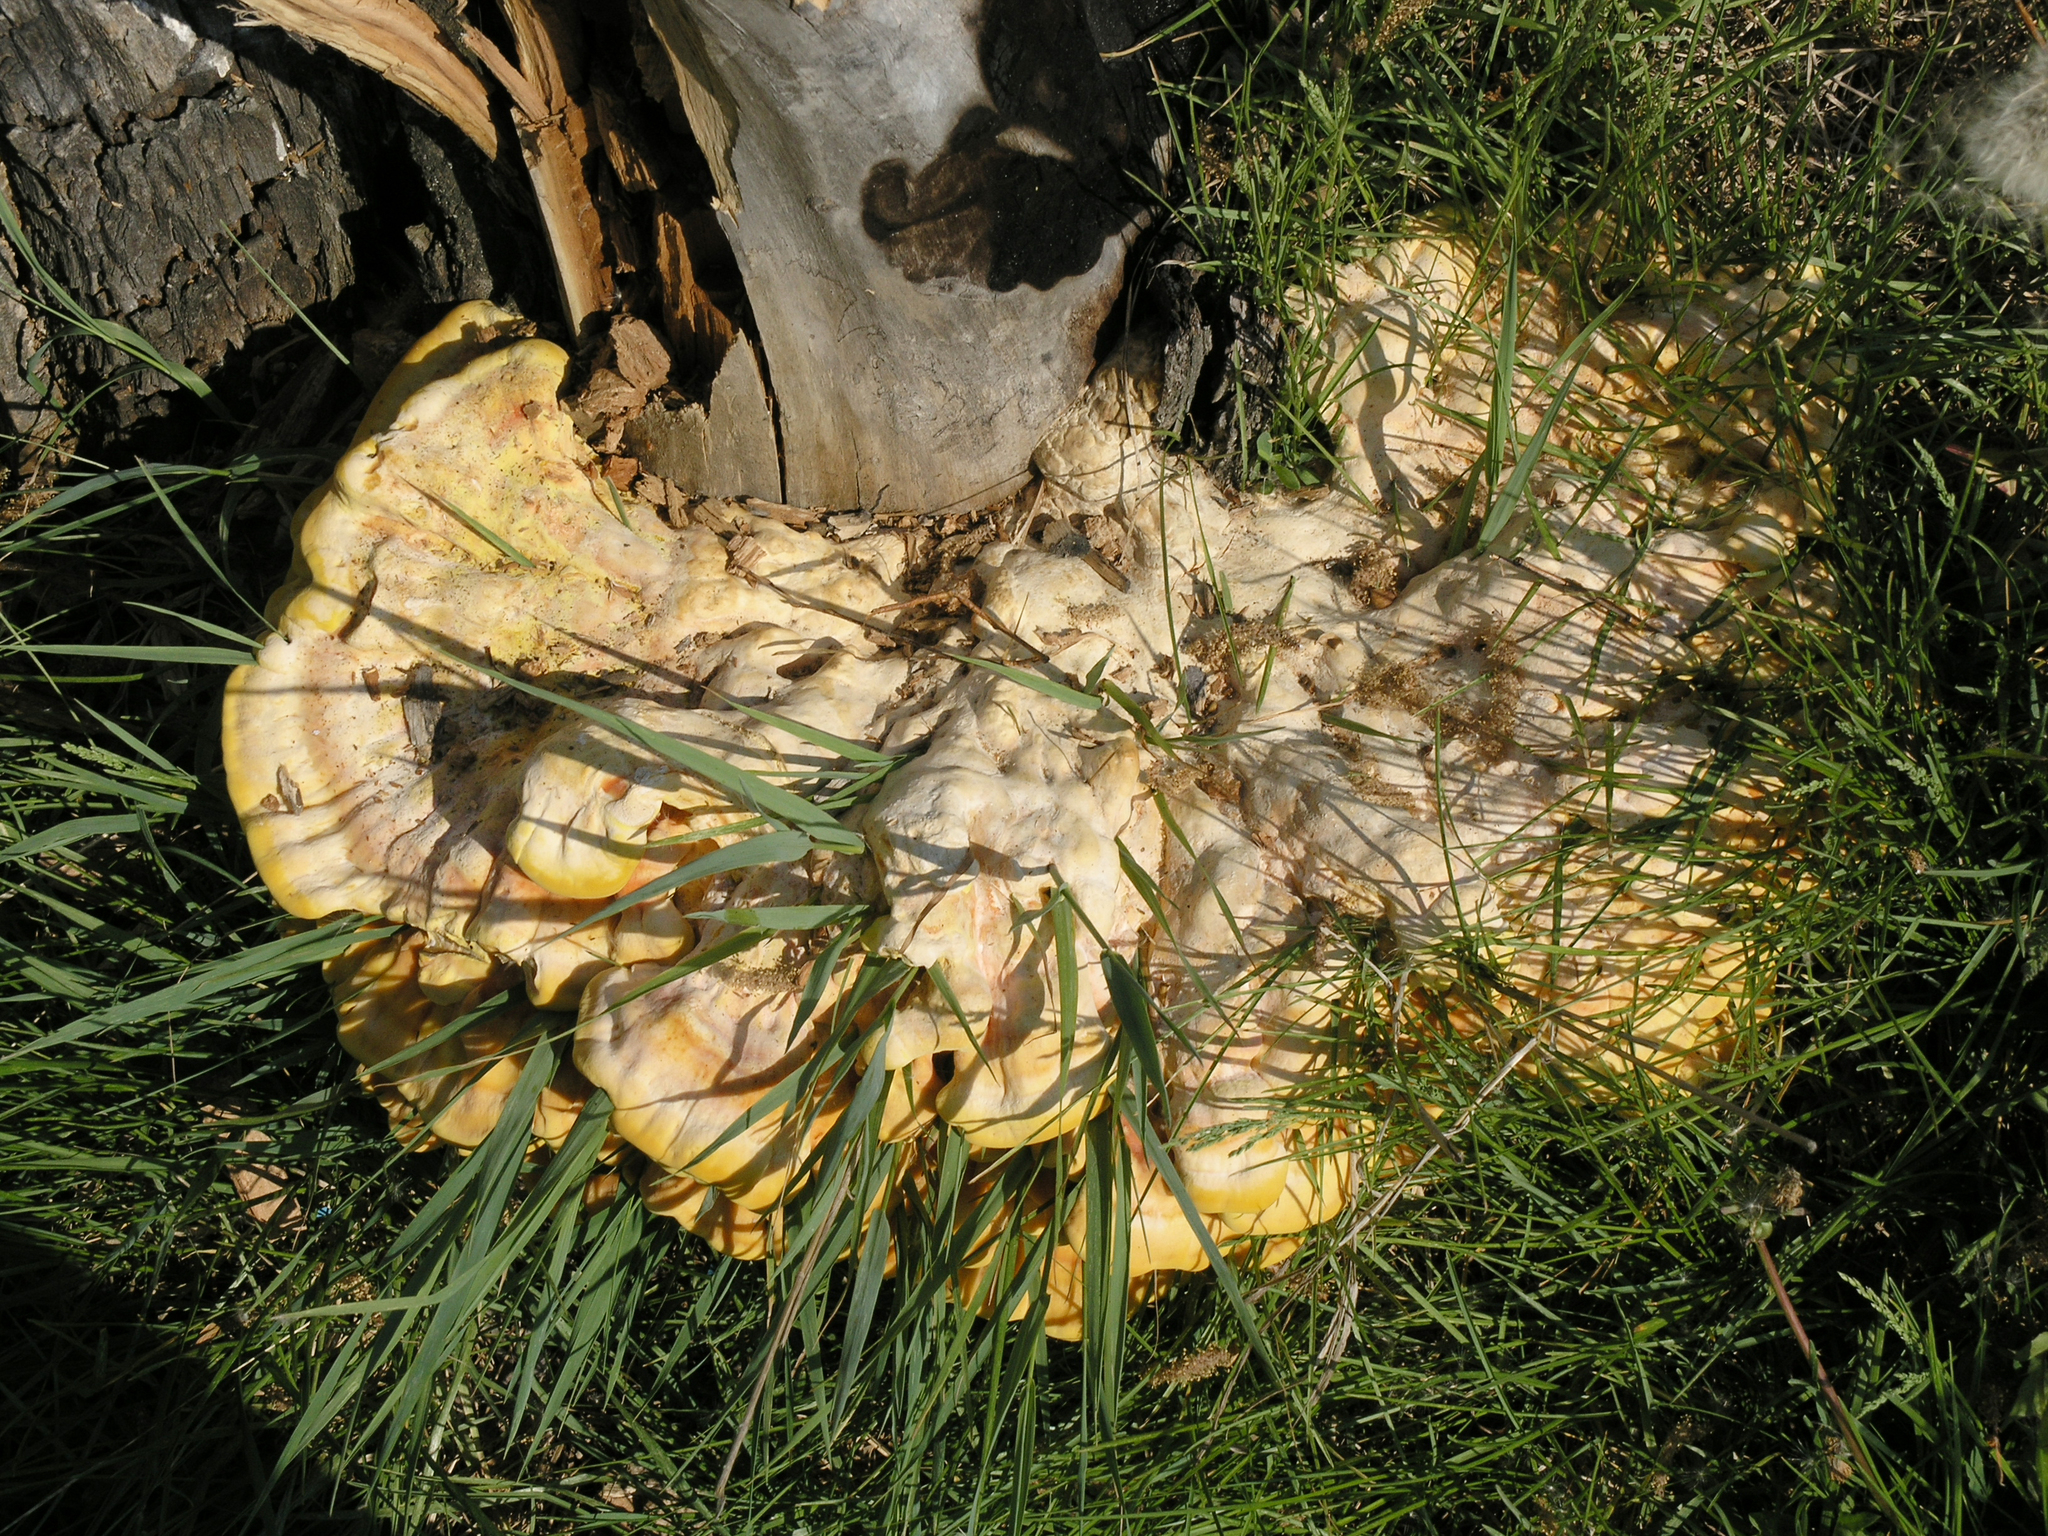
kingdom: Fungi
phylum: Basidiomycota
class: Agaricomycetes
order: Polyporales
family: Laetiporaceae
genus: Laetiporus
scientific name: Laetiporus sulphureus
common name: Chicken of the woods
